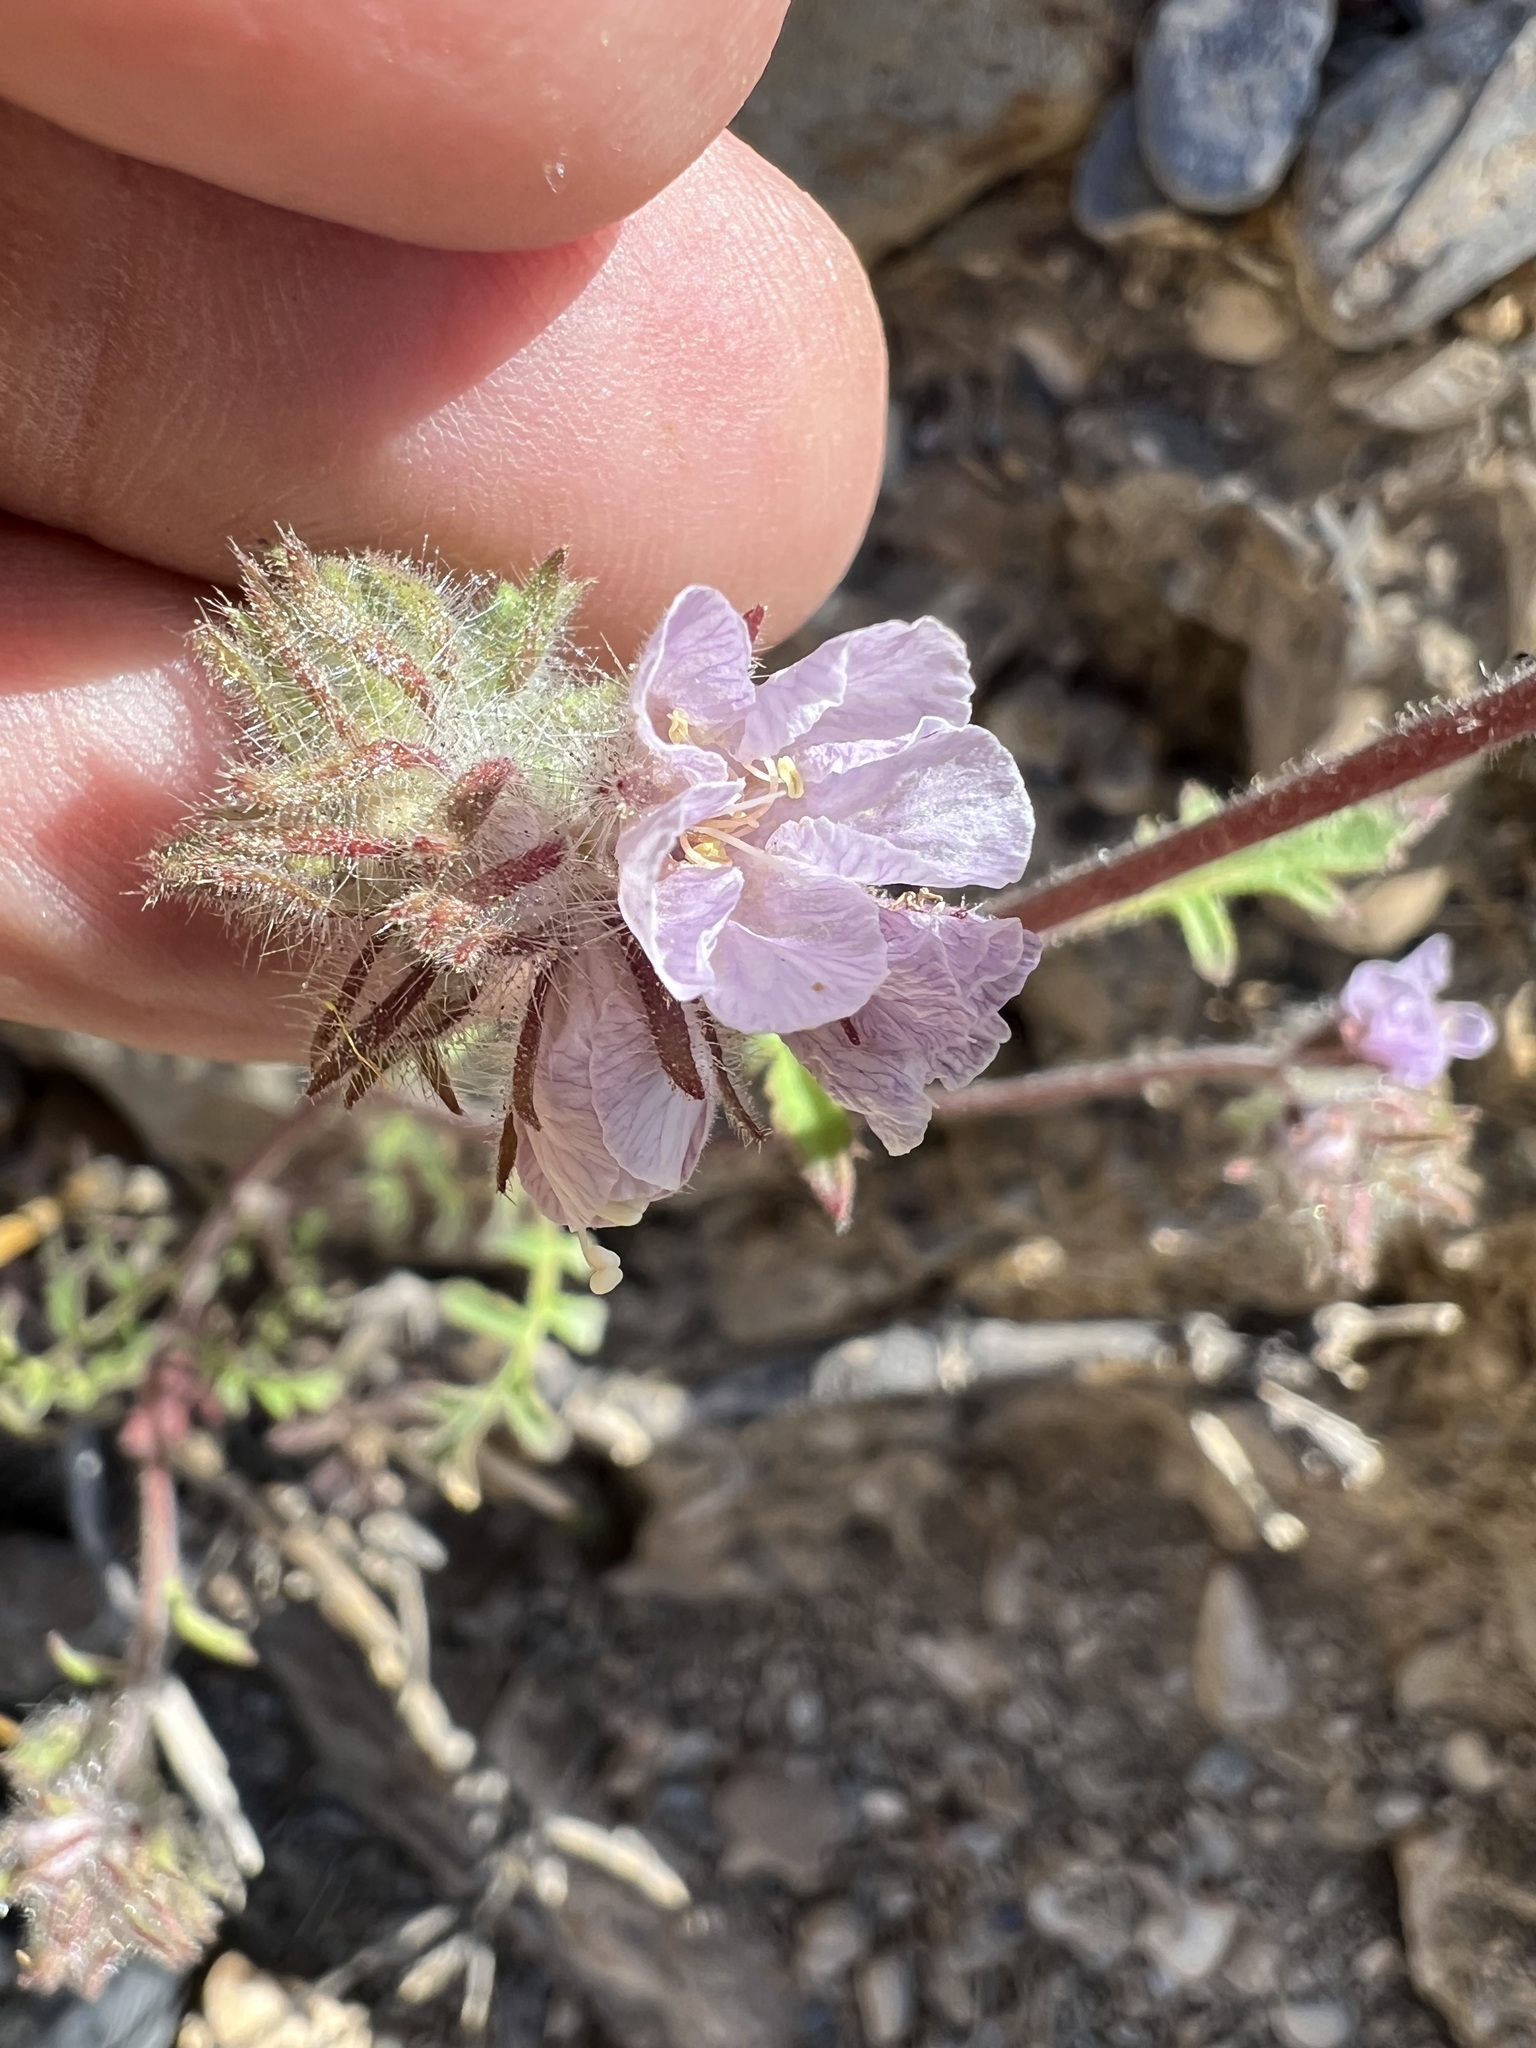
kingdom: Plantae
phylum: Tracheophyta
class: Magnoliopsida
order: Boraginales
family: Hydrophyllaceae
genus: Phacelia
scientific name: Phacelia vallis-mortae
